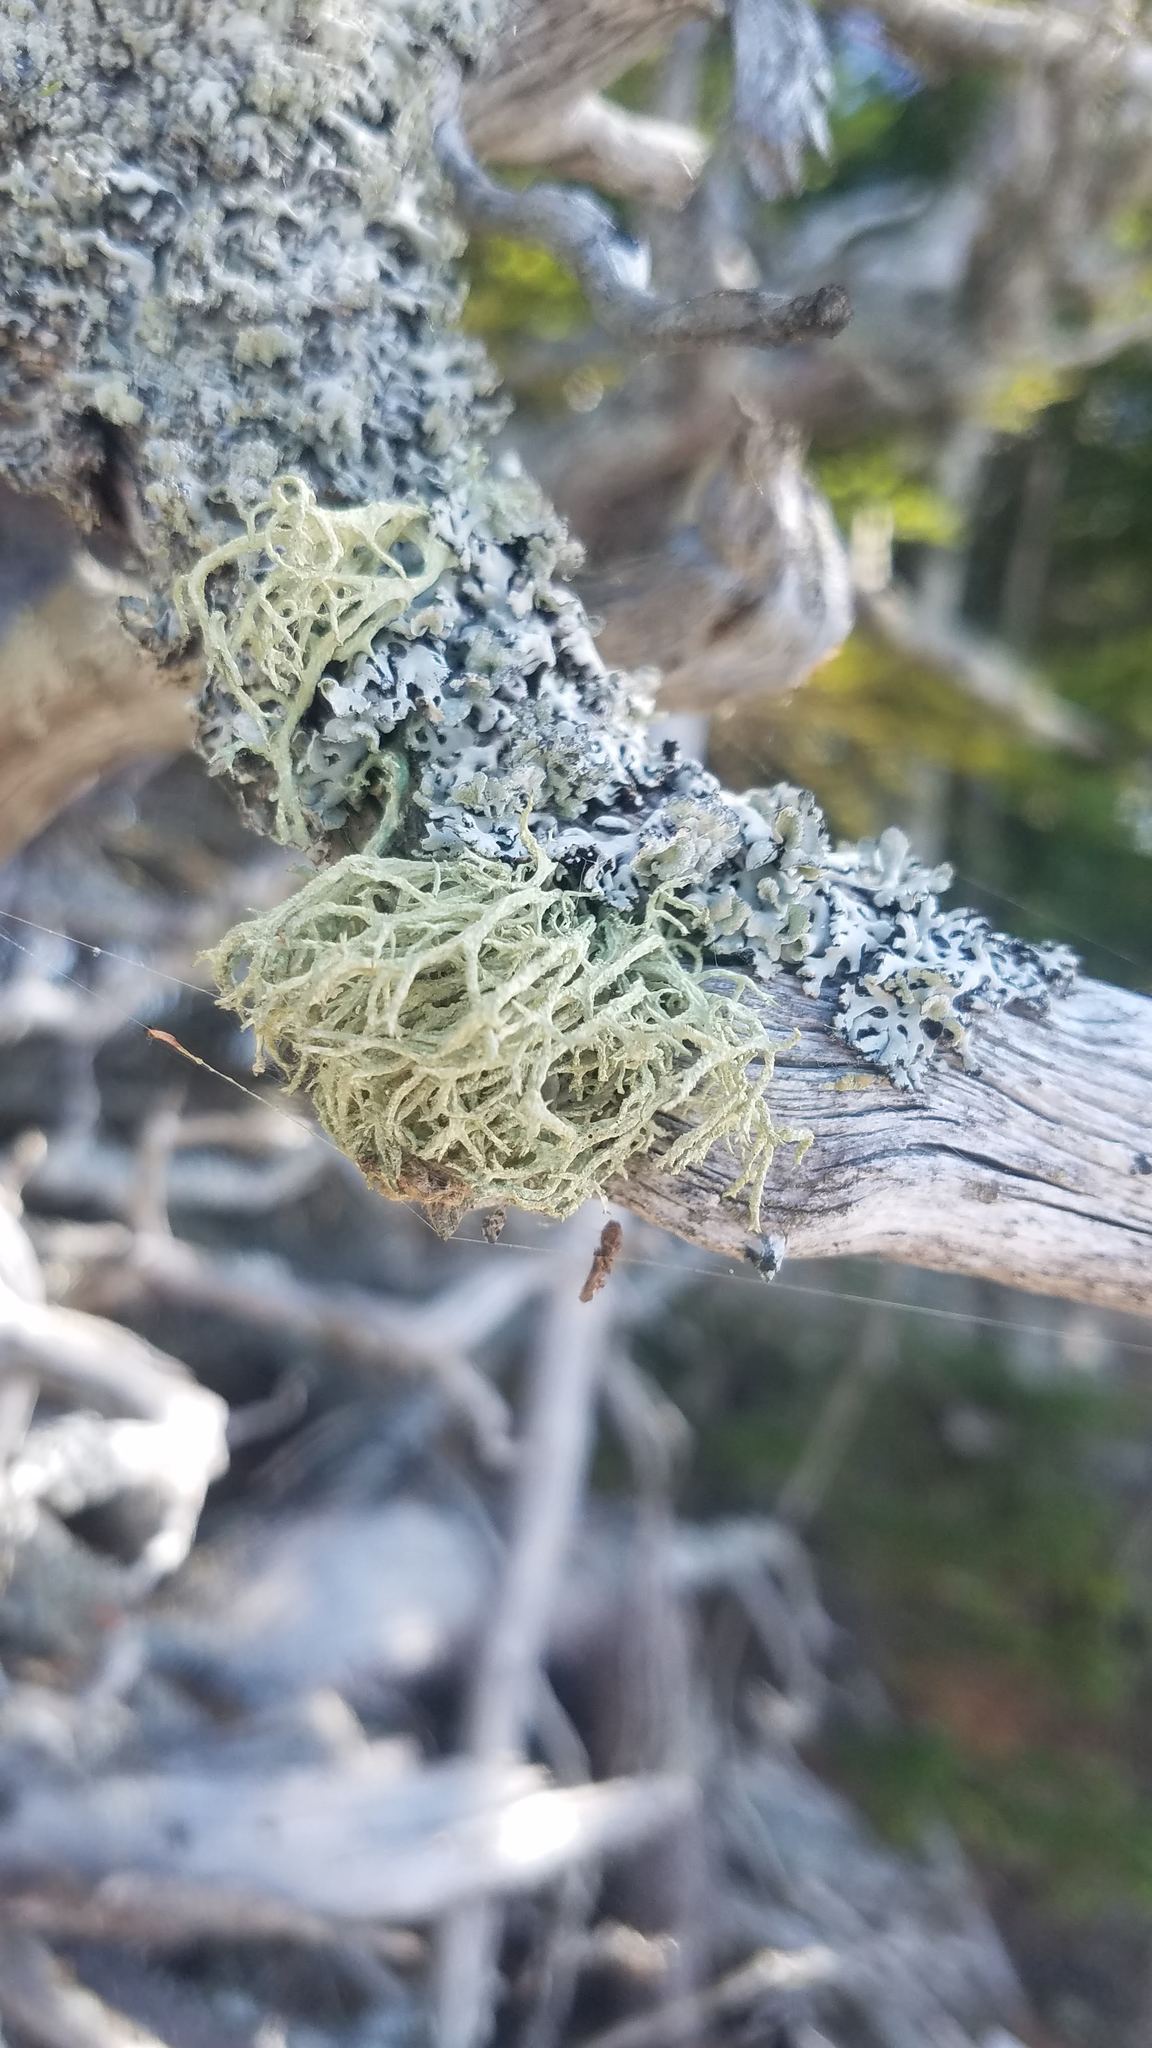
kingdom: Fungi
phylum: Ascomycota
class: Lecanoromycetes
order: Lecanorales
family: Parmeliaceae
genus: Evernia
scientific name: Evernia mesomorpha
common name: Boreal oak moss lichen
